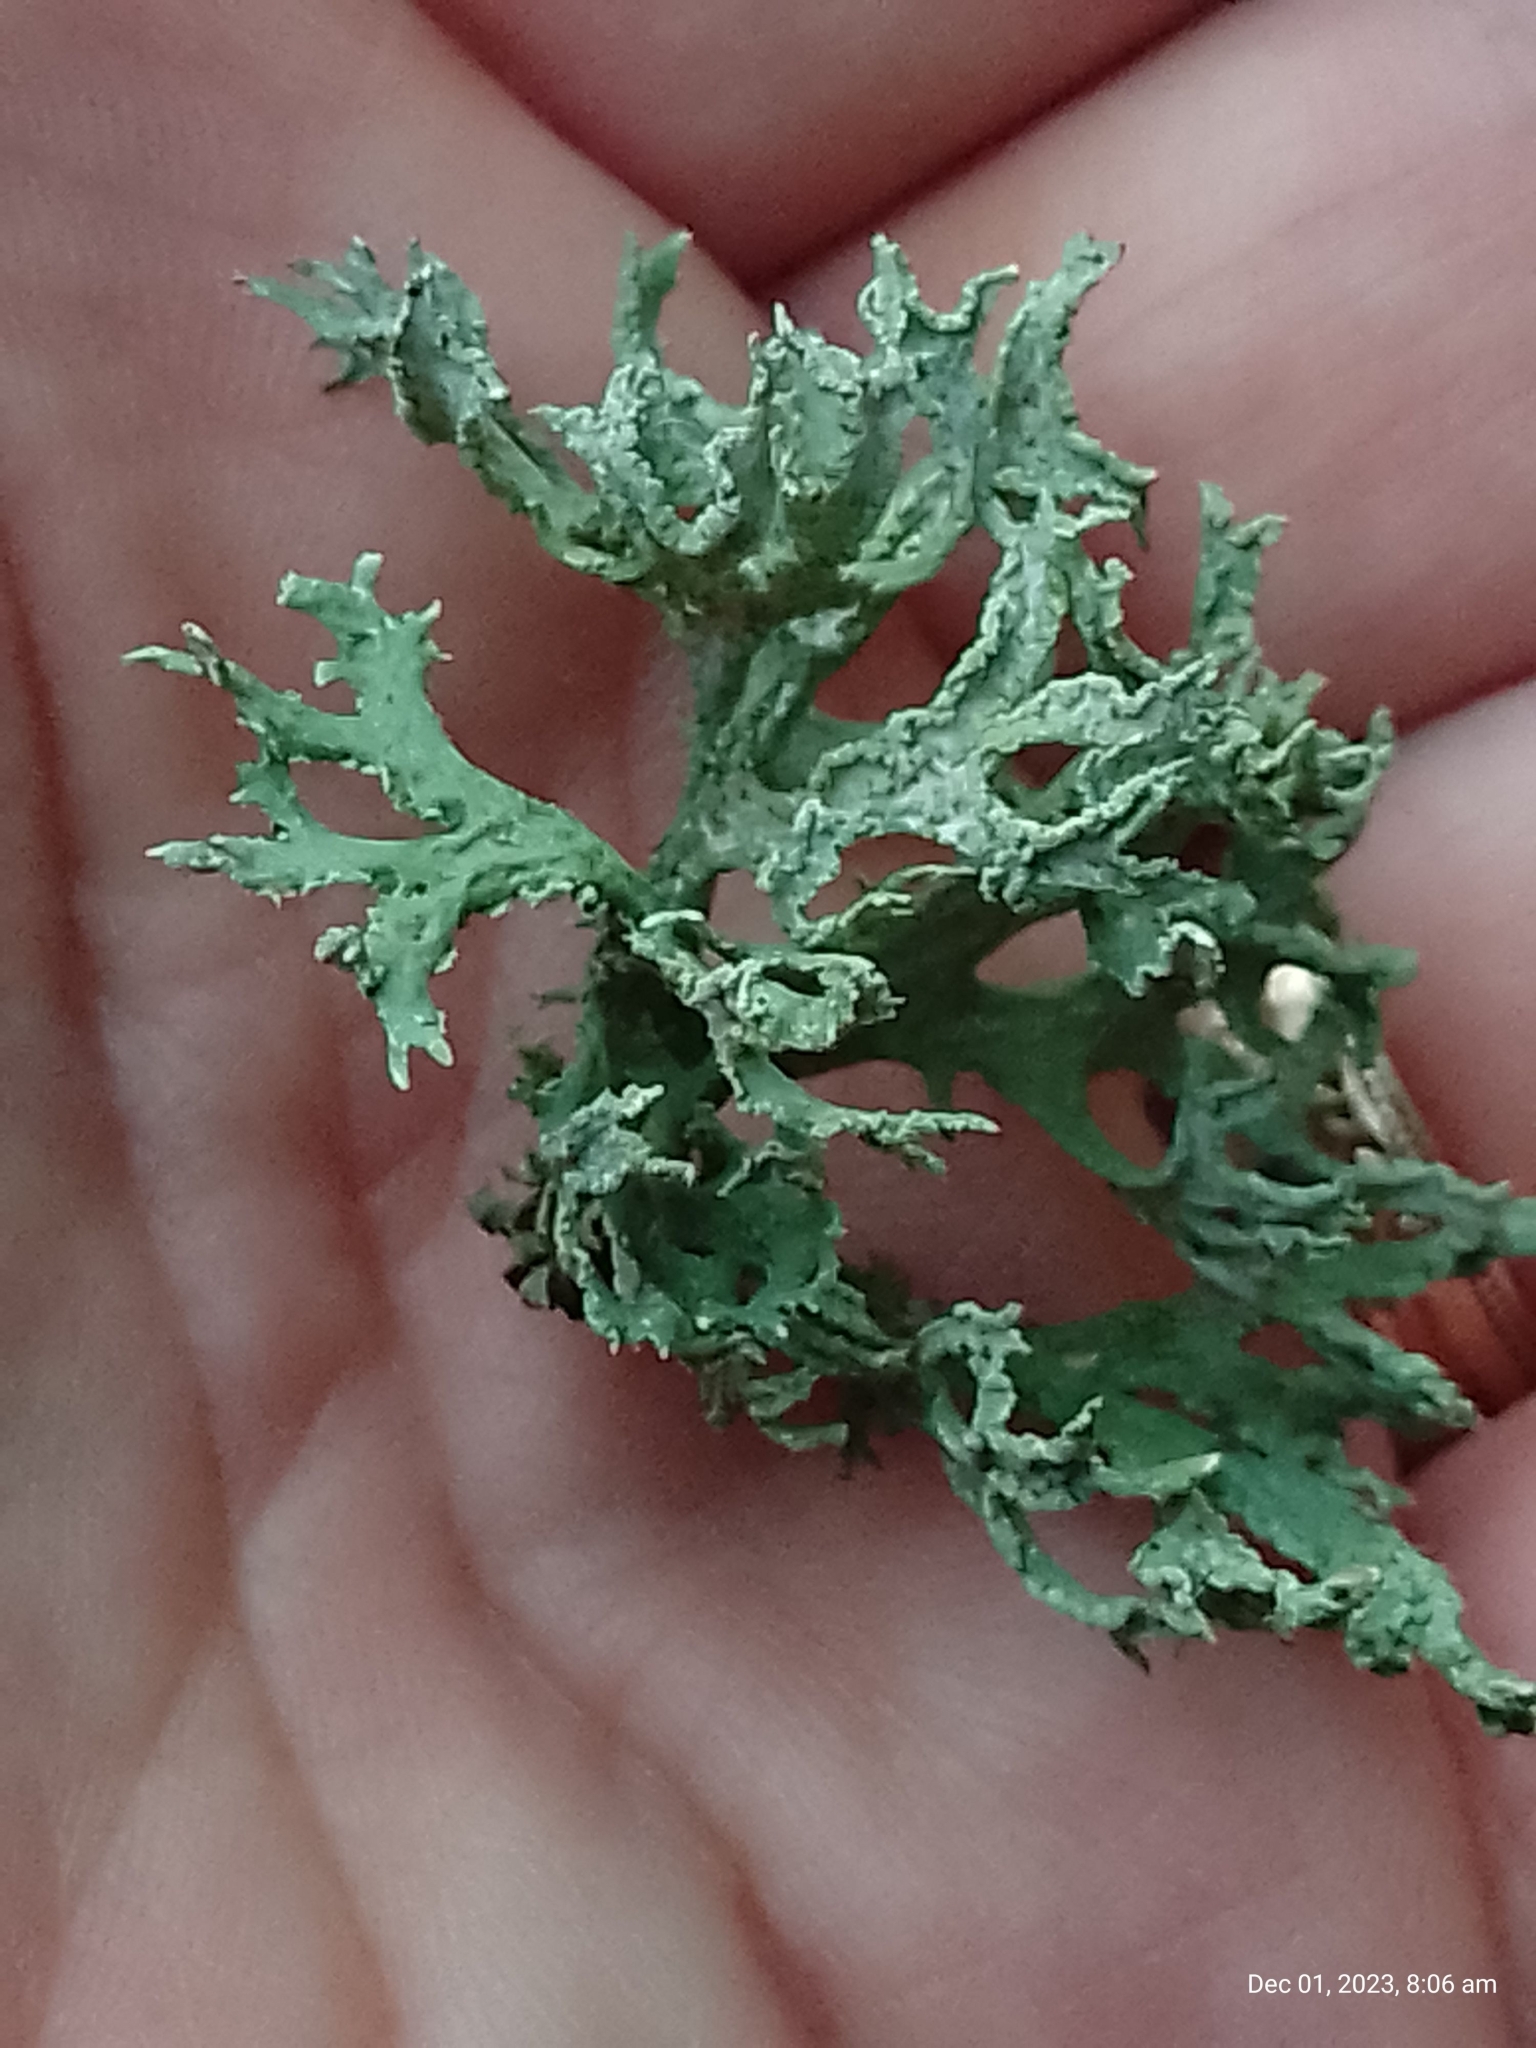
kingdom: Fungi
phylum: Ascomycota
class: Lecanoromycetes
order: Lecanorales
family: Parmeliaceae
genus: Evernia
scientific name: Evernia prunastri
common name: Oak moss
